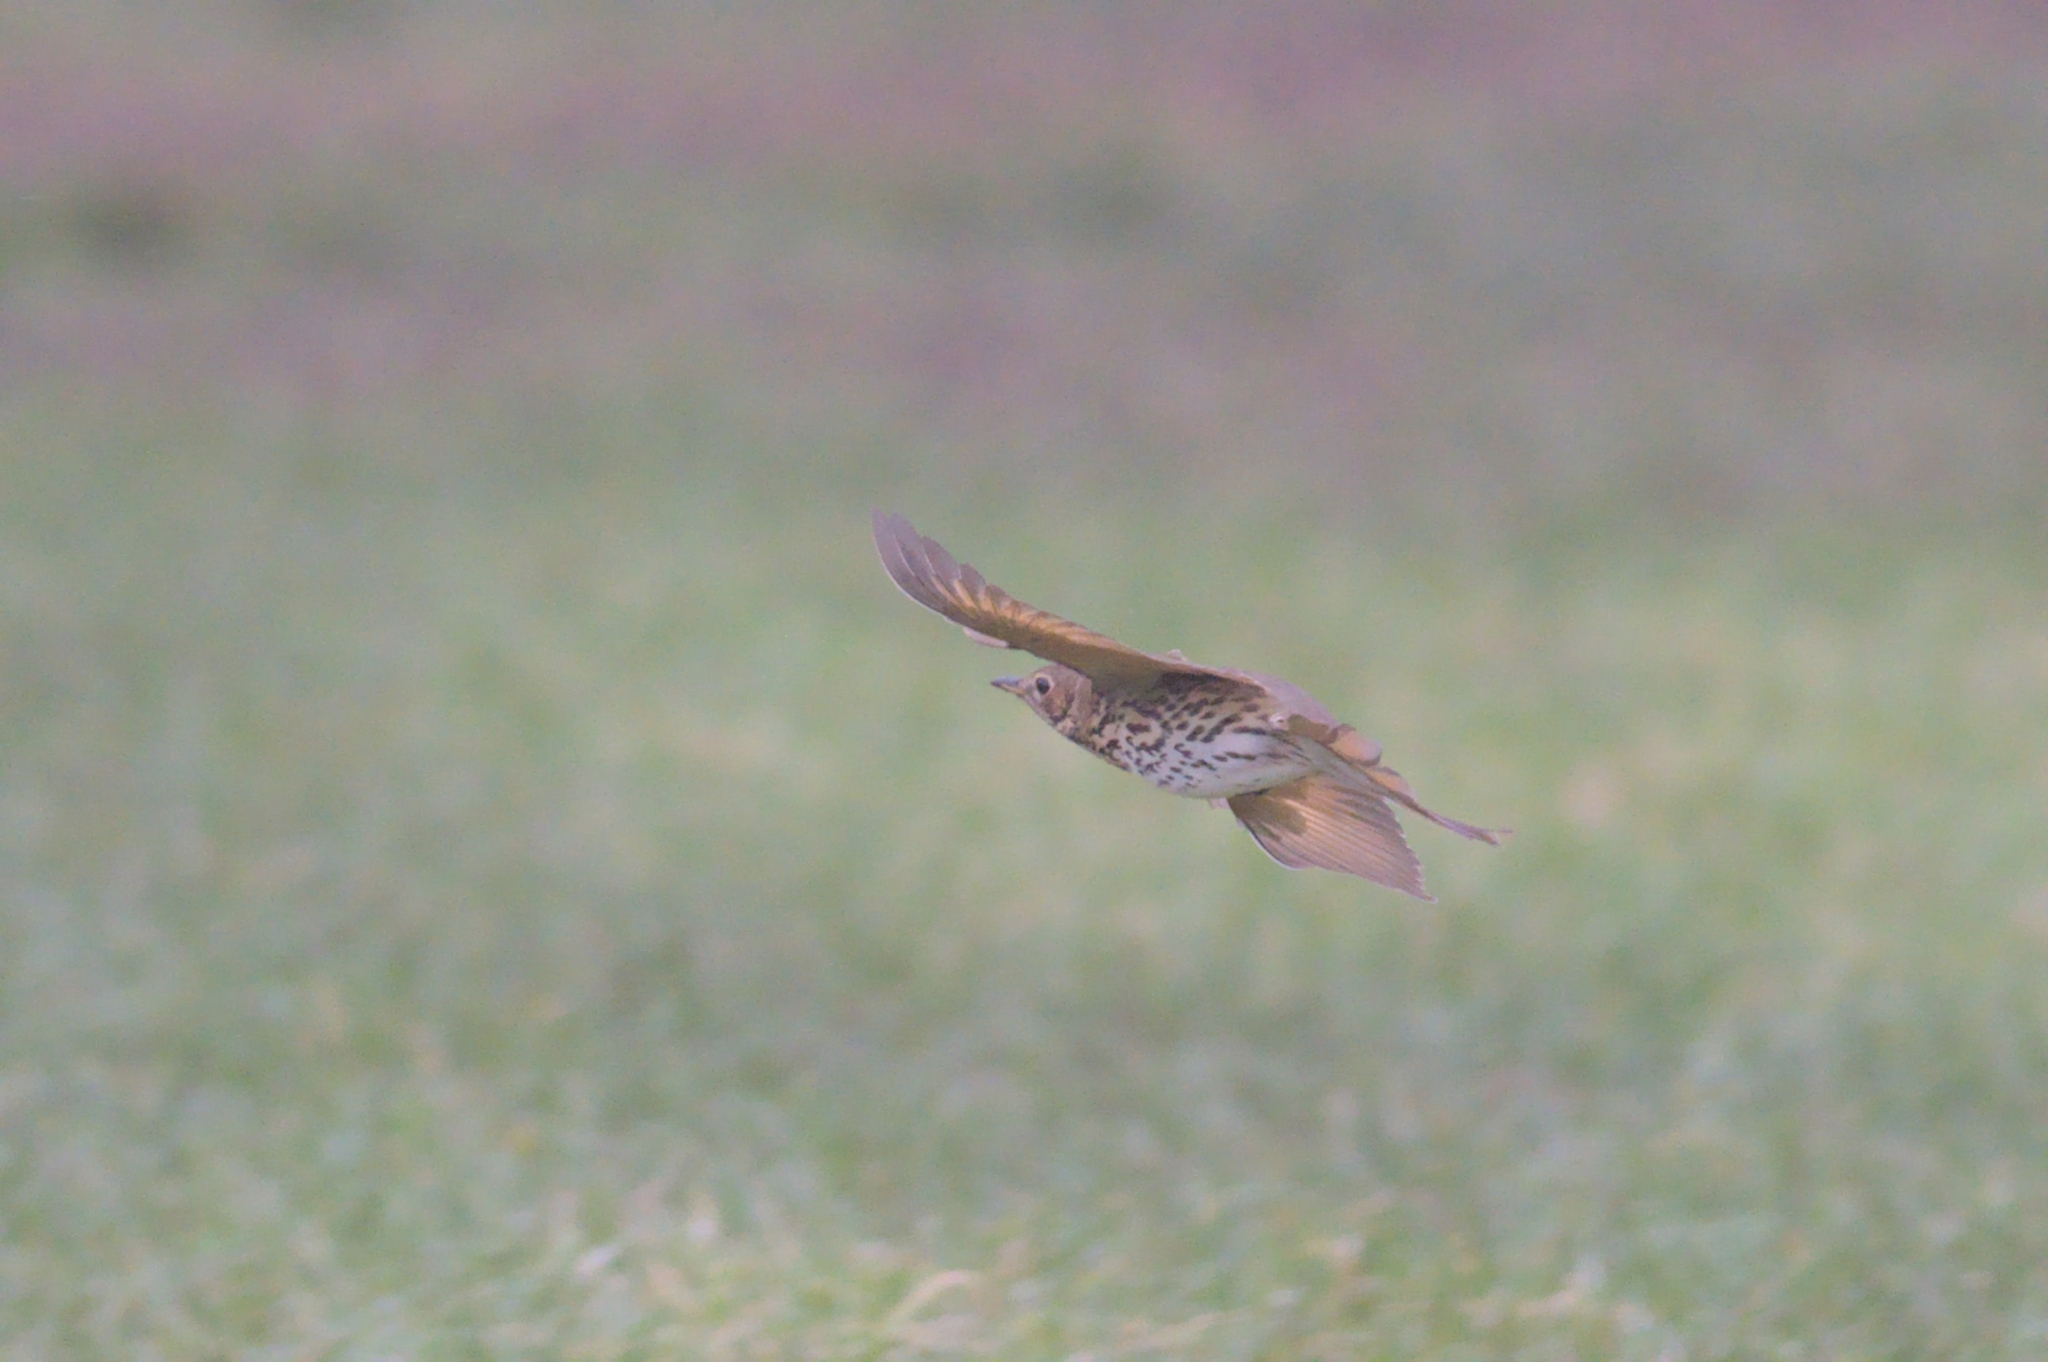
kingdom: Animalia
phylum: Chordata
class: Aves
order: Passeriformes
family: Turdidae
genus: Turdus
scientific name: Turdus philomelos
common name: Song thrush
